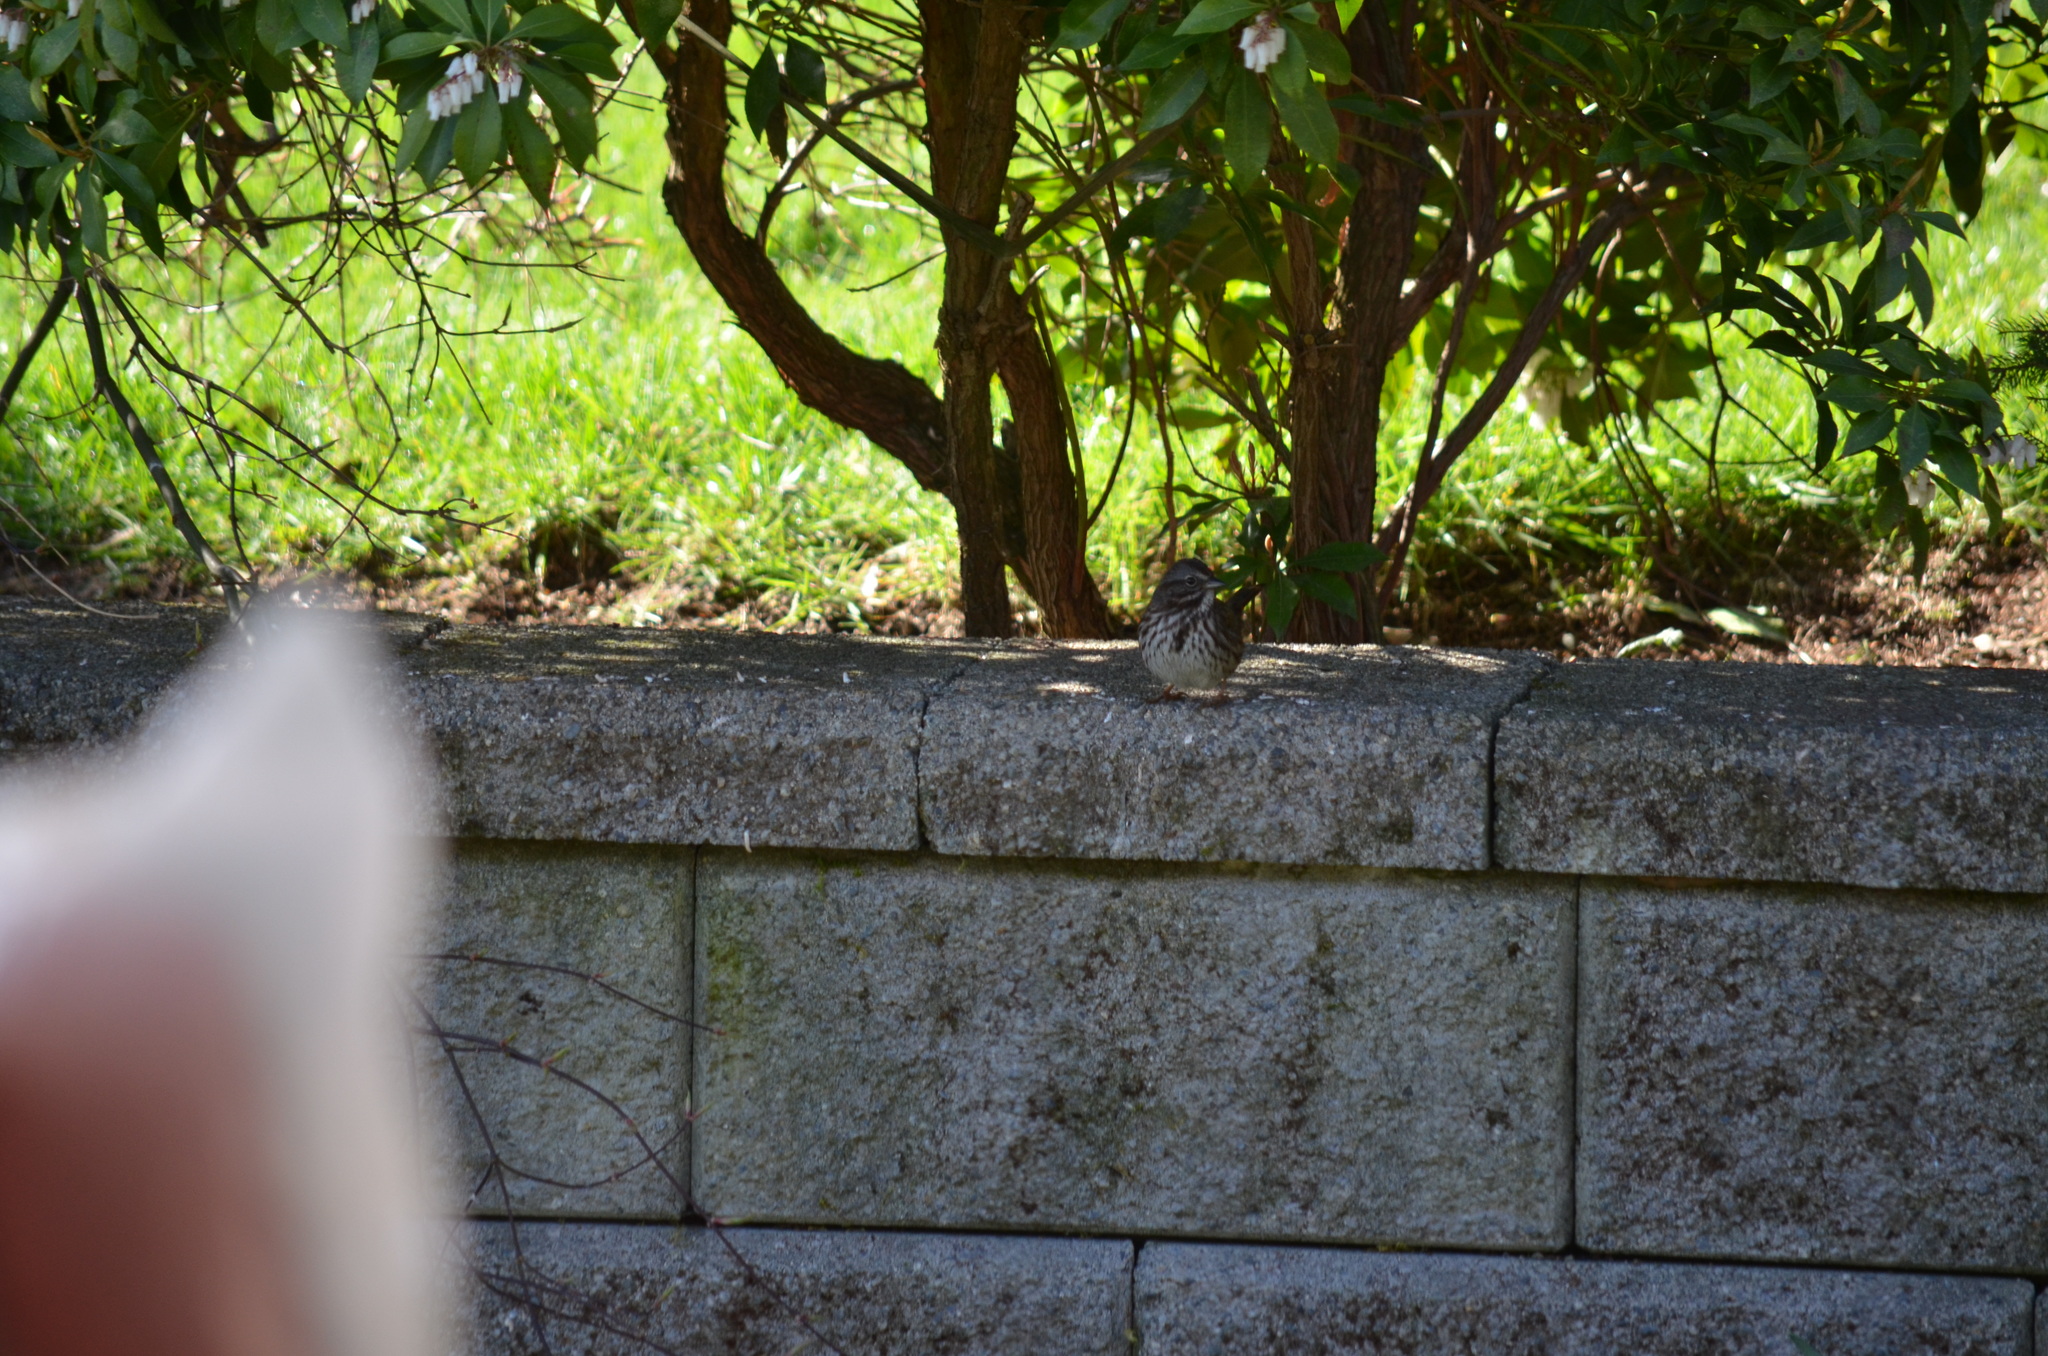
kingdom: Animalia
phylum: Chordata
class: Aves
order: Passeriformes
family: Passerellidae
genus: Melospiza
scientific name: Melospiza melodia
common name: Song sparrow
